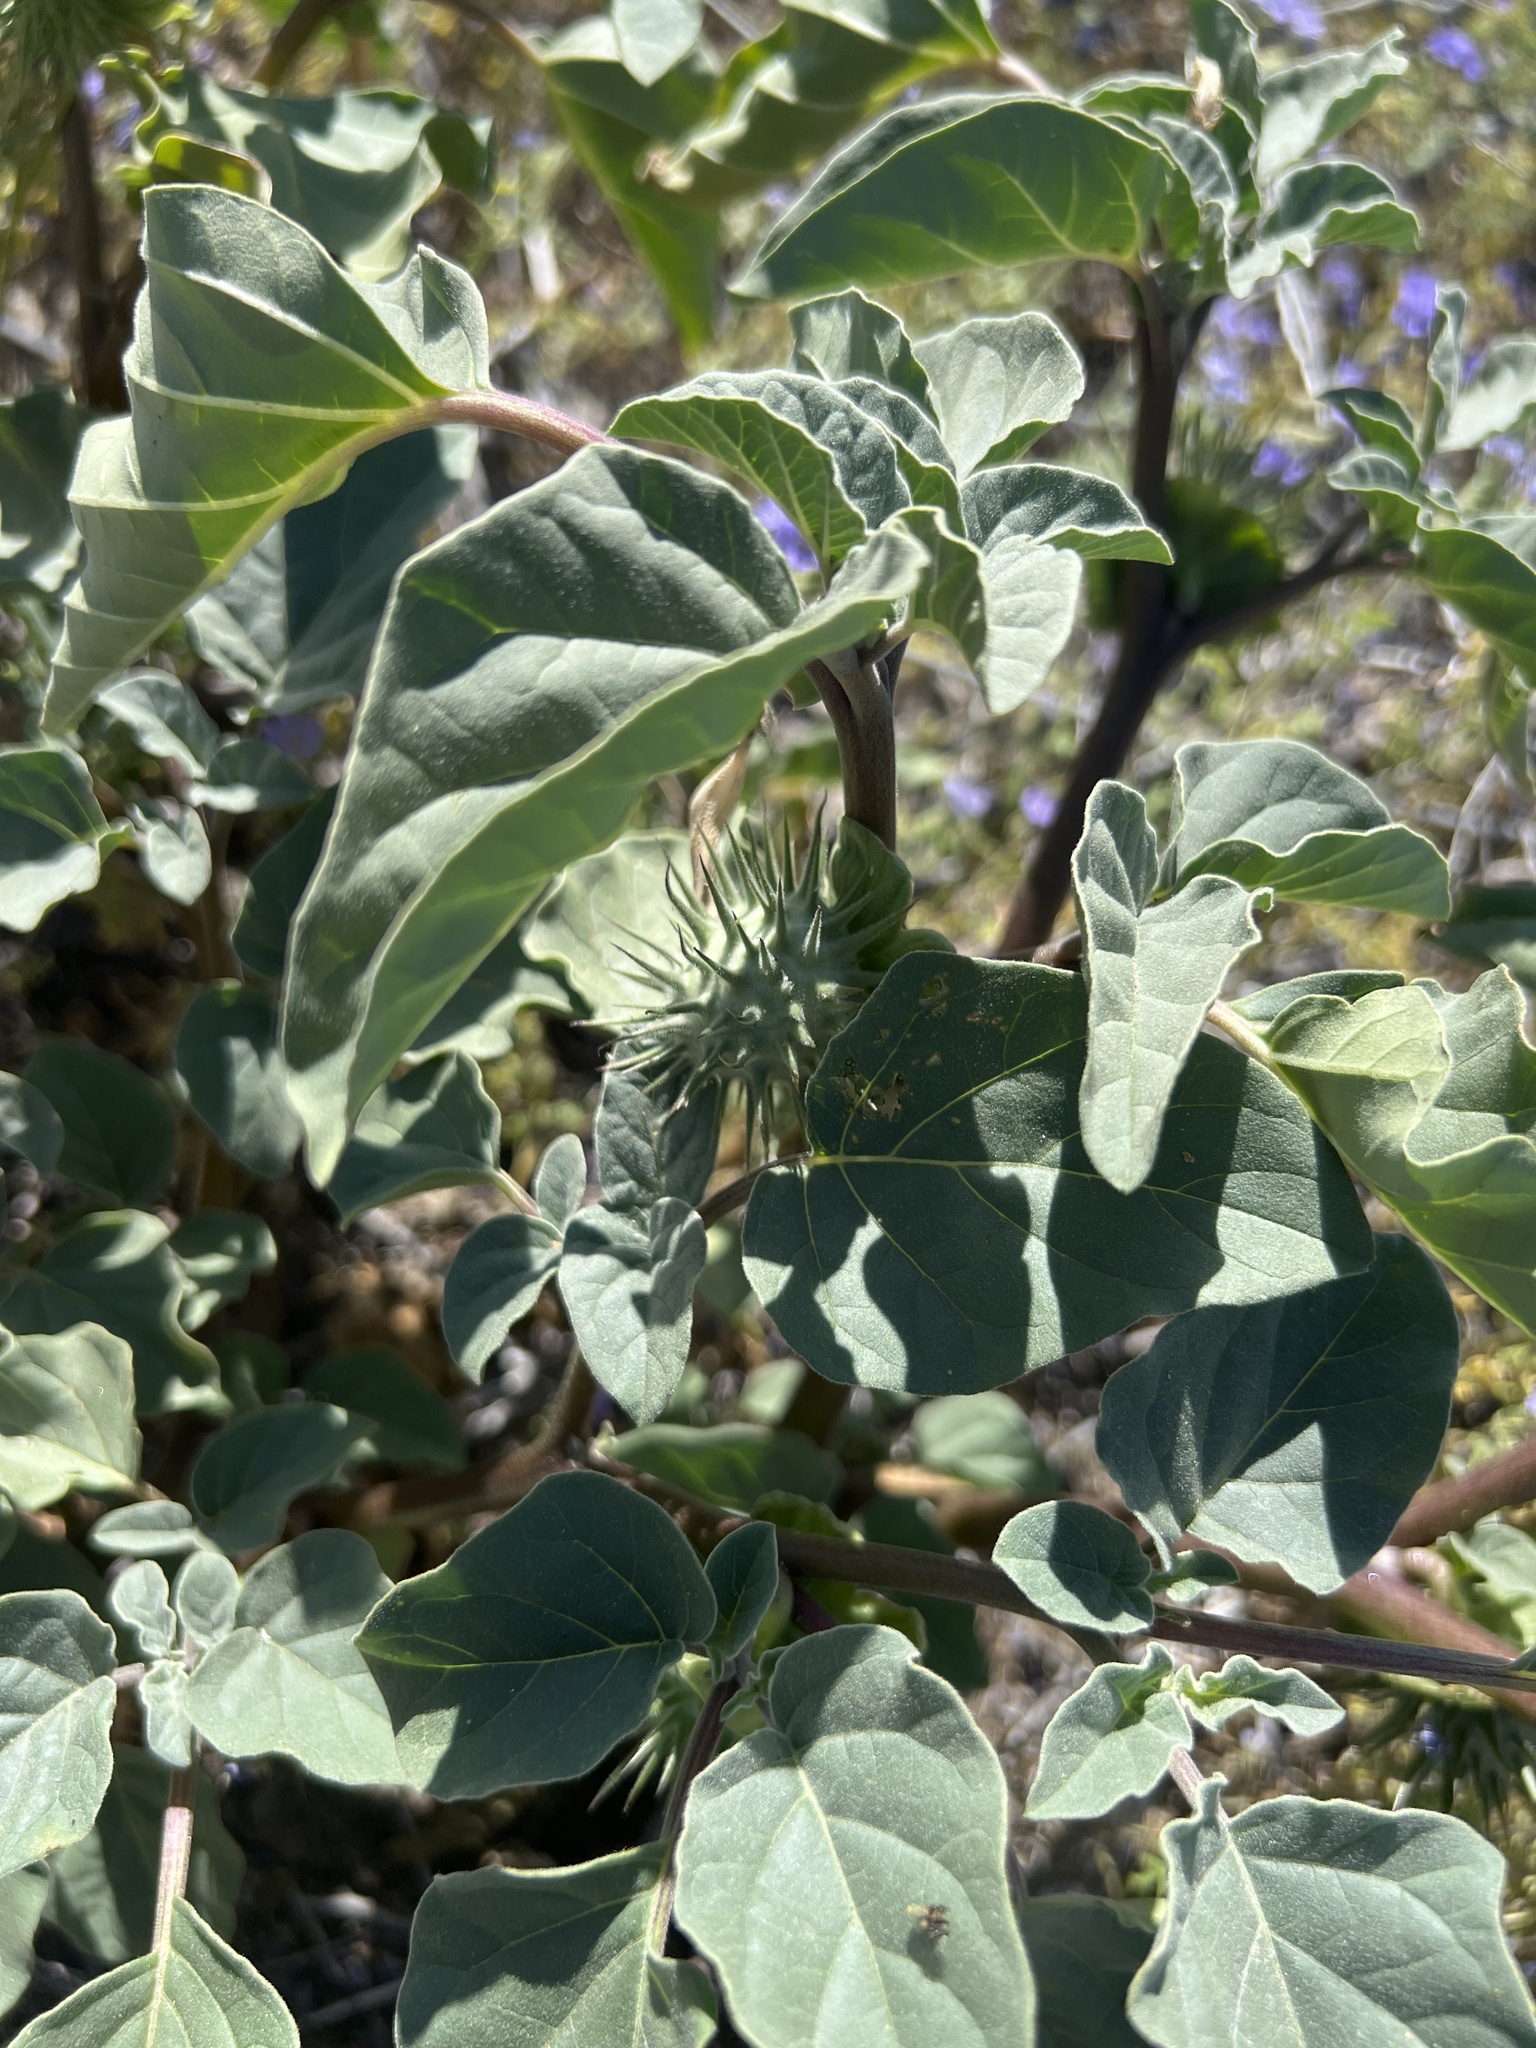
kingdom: Plantae
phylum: Tracheophyta
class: Magnoliopsida
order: Solanales
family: Solanaceae
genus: Datura
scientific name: Datura discolor
